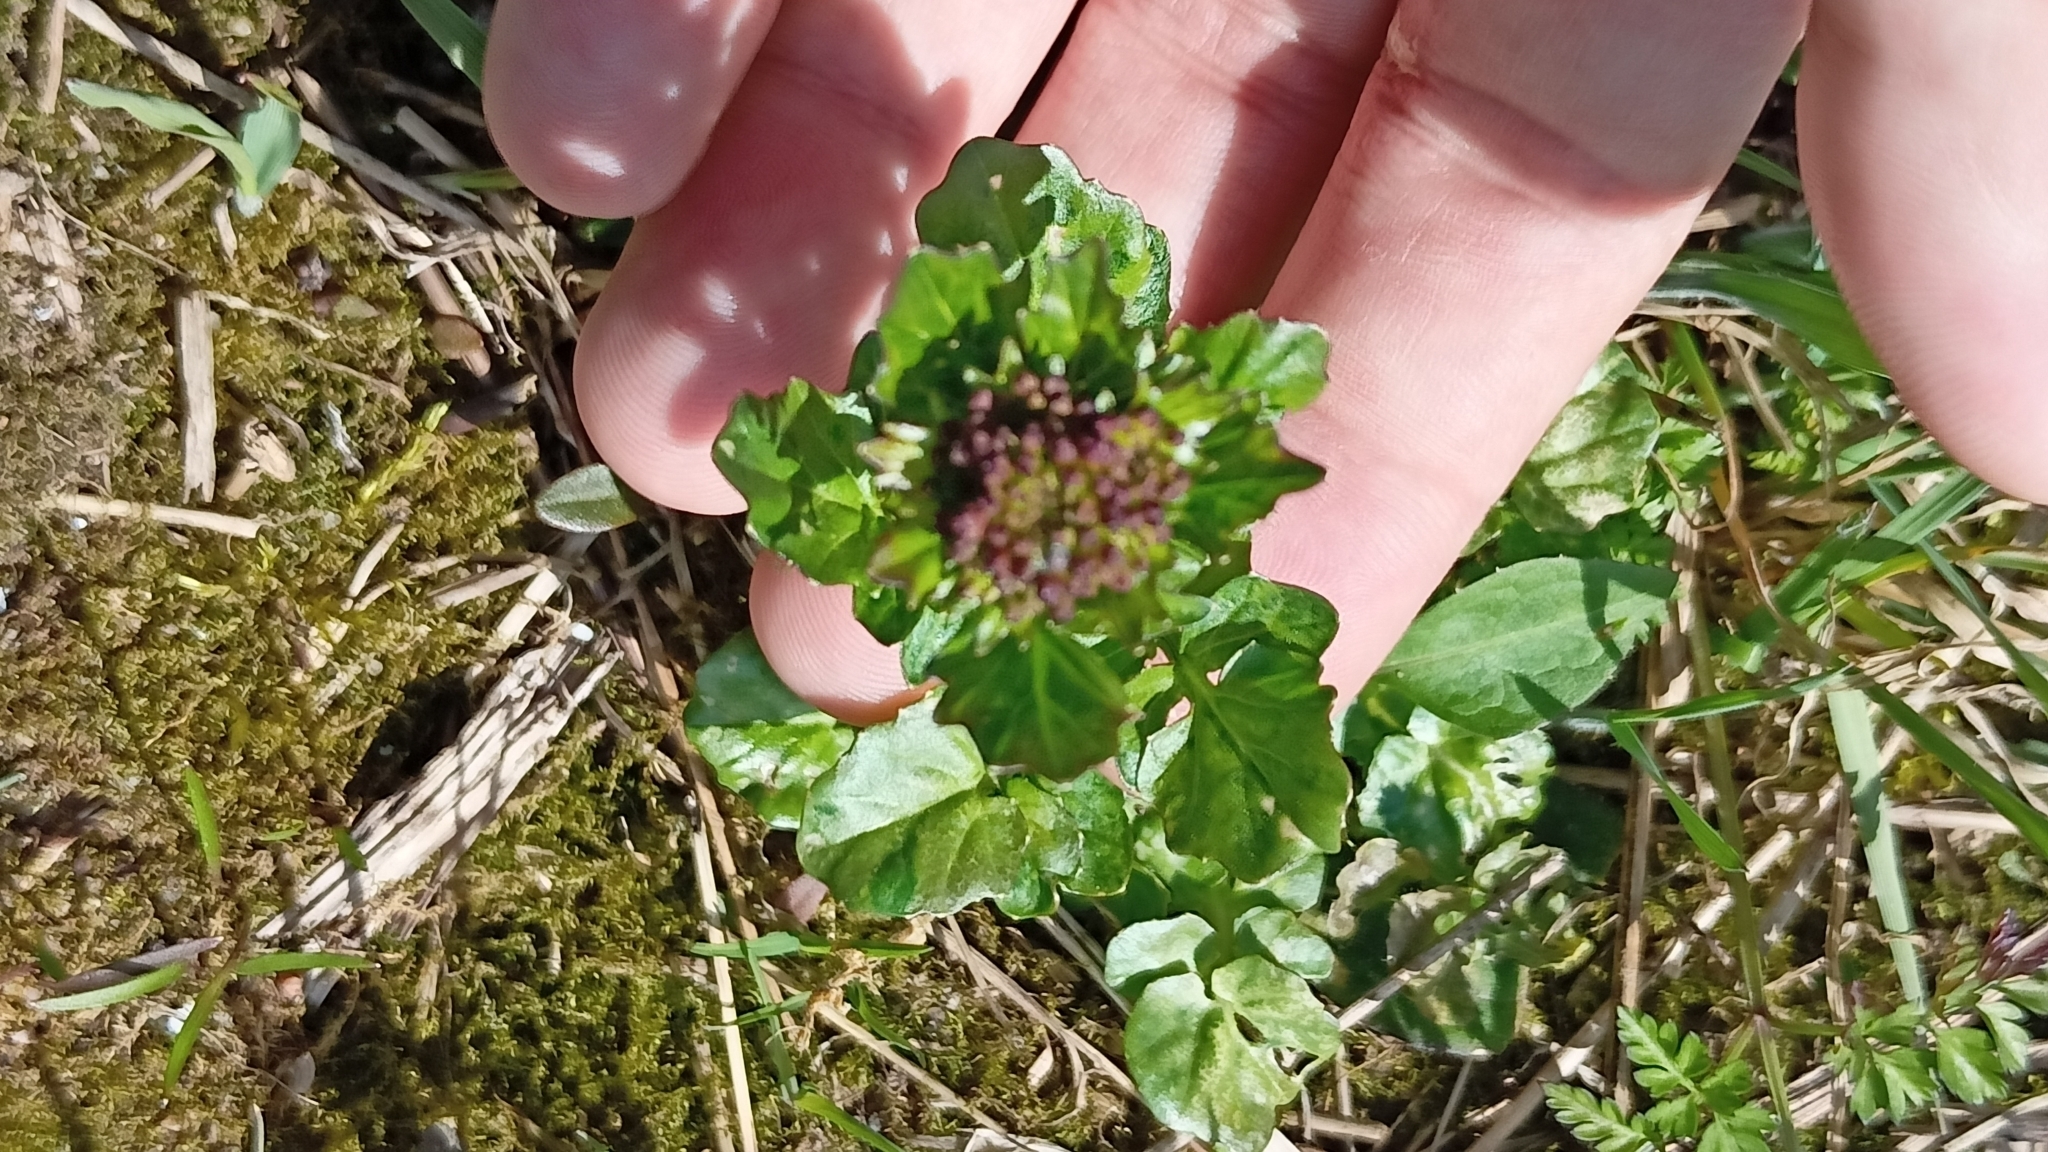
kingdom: Plantae
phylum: Tracheophyta
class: Magnoliopsida
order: Brassicales
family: Brassicaceae
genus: Barbarea
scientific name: Barbarea vulgaris
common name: Cressy-greens
